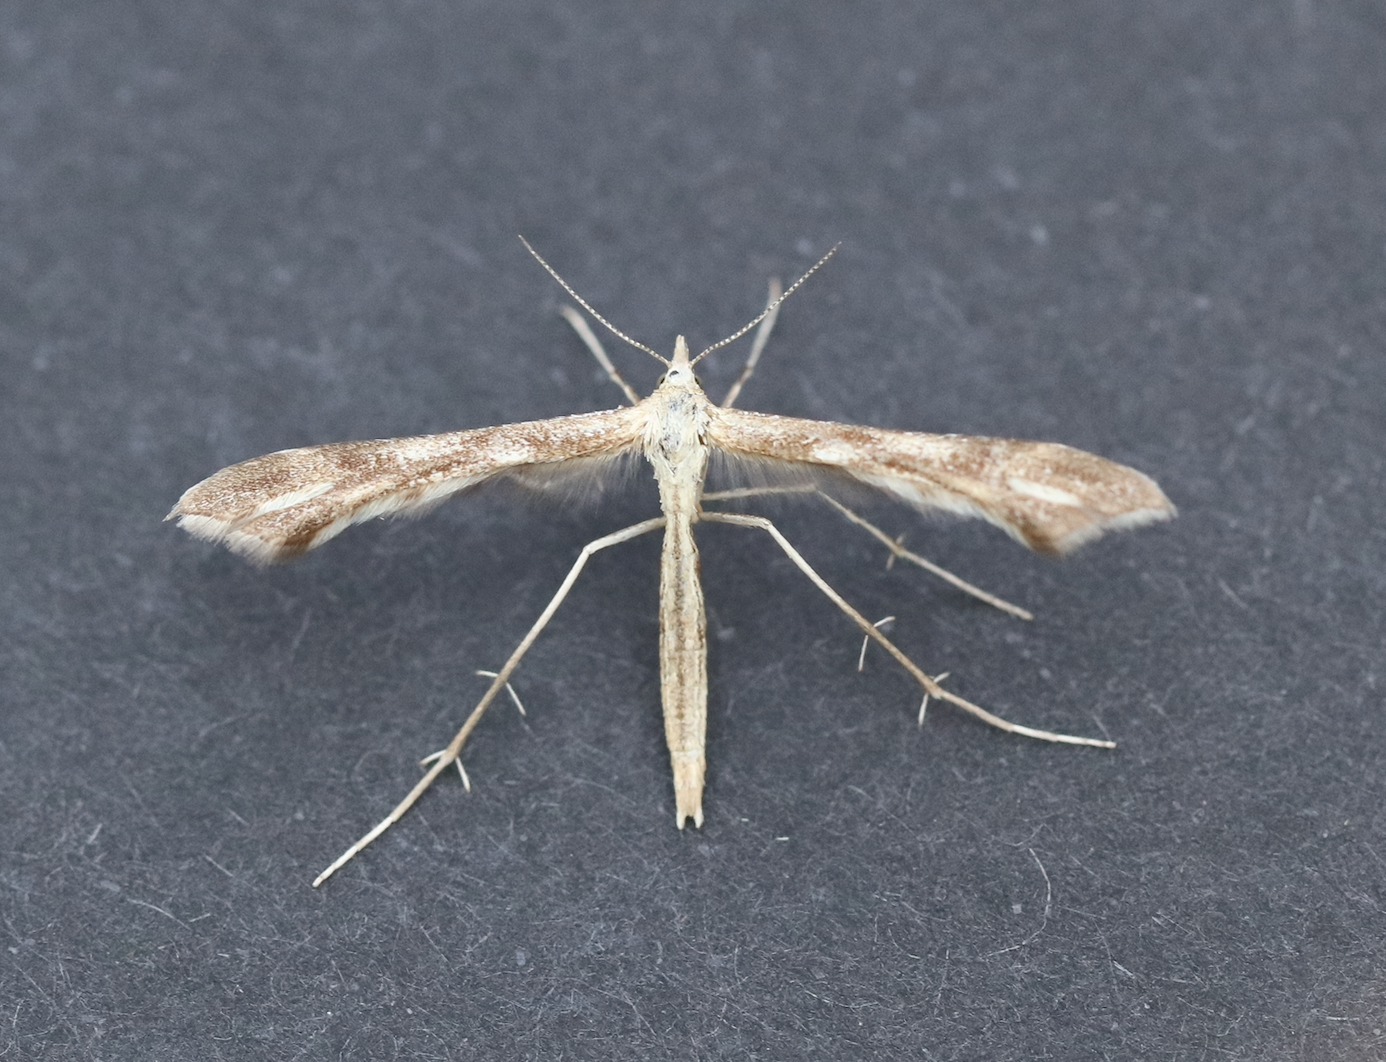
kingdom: Animalia
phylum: Arthropoda
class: Insecta
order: Lepidoptera
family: Pterophoridae
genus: Gillmeria
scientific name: Gillmeria pallidactyla
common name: Yarrow plume
